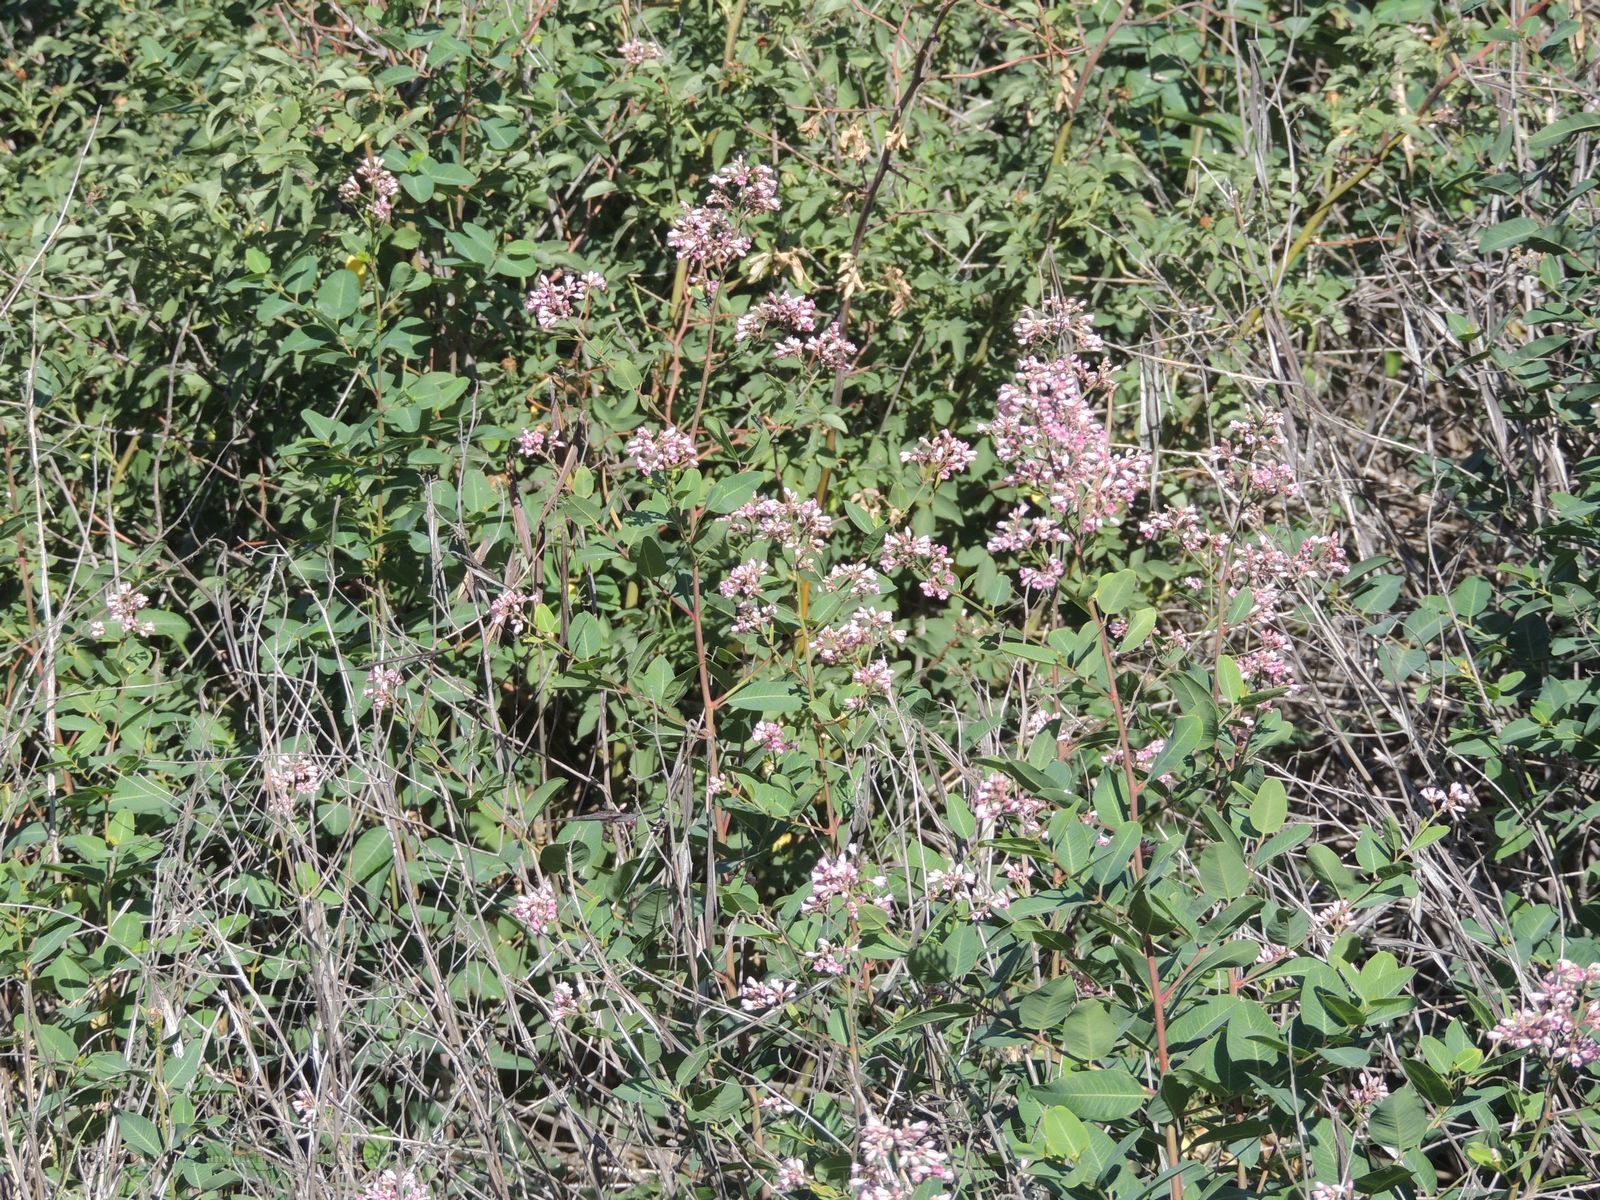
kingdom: Plantae
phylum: Tracheophyta
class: Magnoliopsida
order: Gentianales
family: Apocynaceae
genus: Poacynum
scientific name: Poacynum venetum
